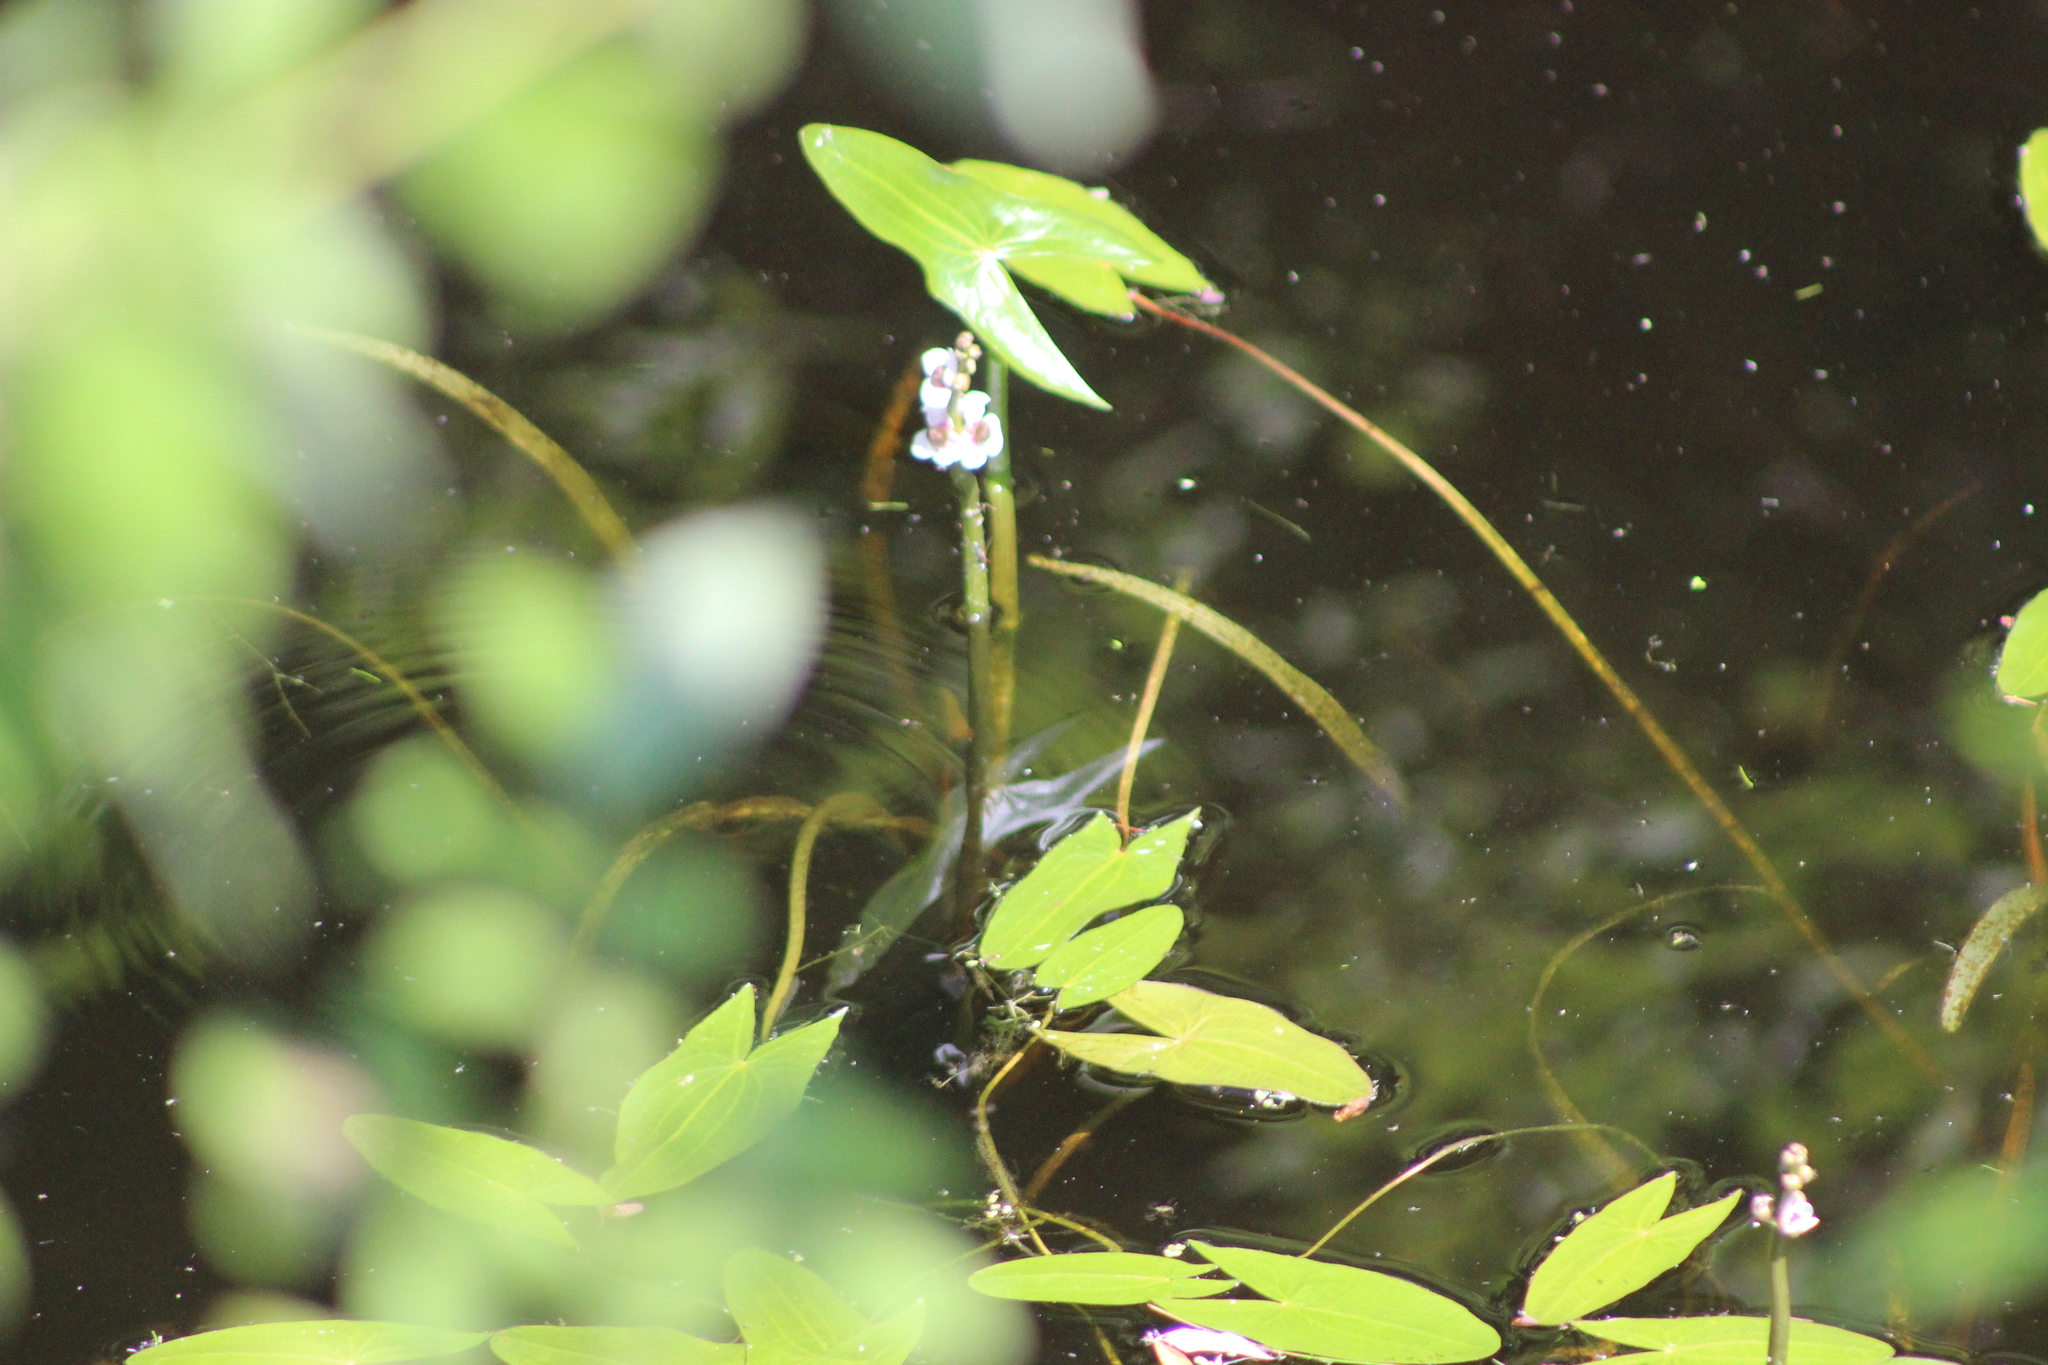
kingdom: Plantae
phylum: Tracheophyta
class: Liliopsida
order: Alismatales
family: Alismataceae
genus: Sagittaria
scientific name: Sagittaria sagittifolia
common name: Arrowhead
